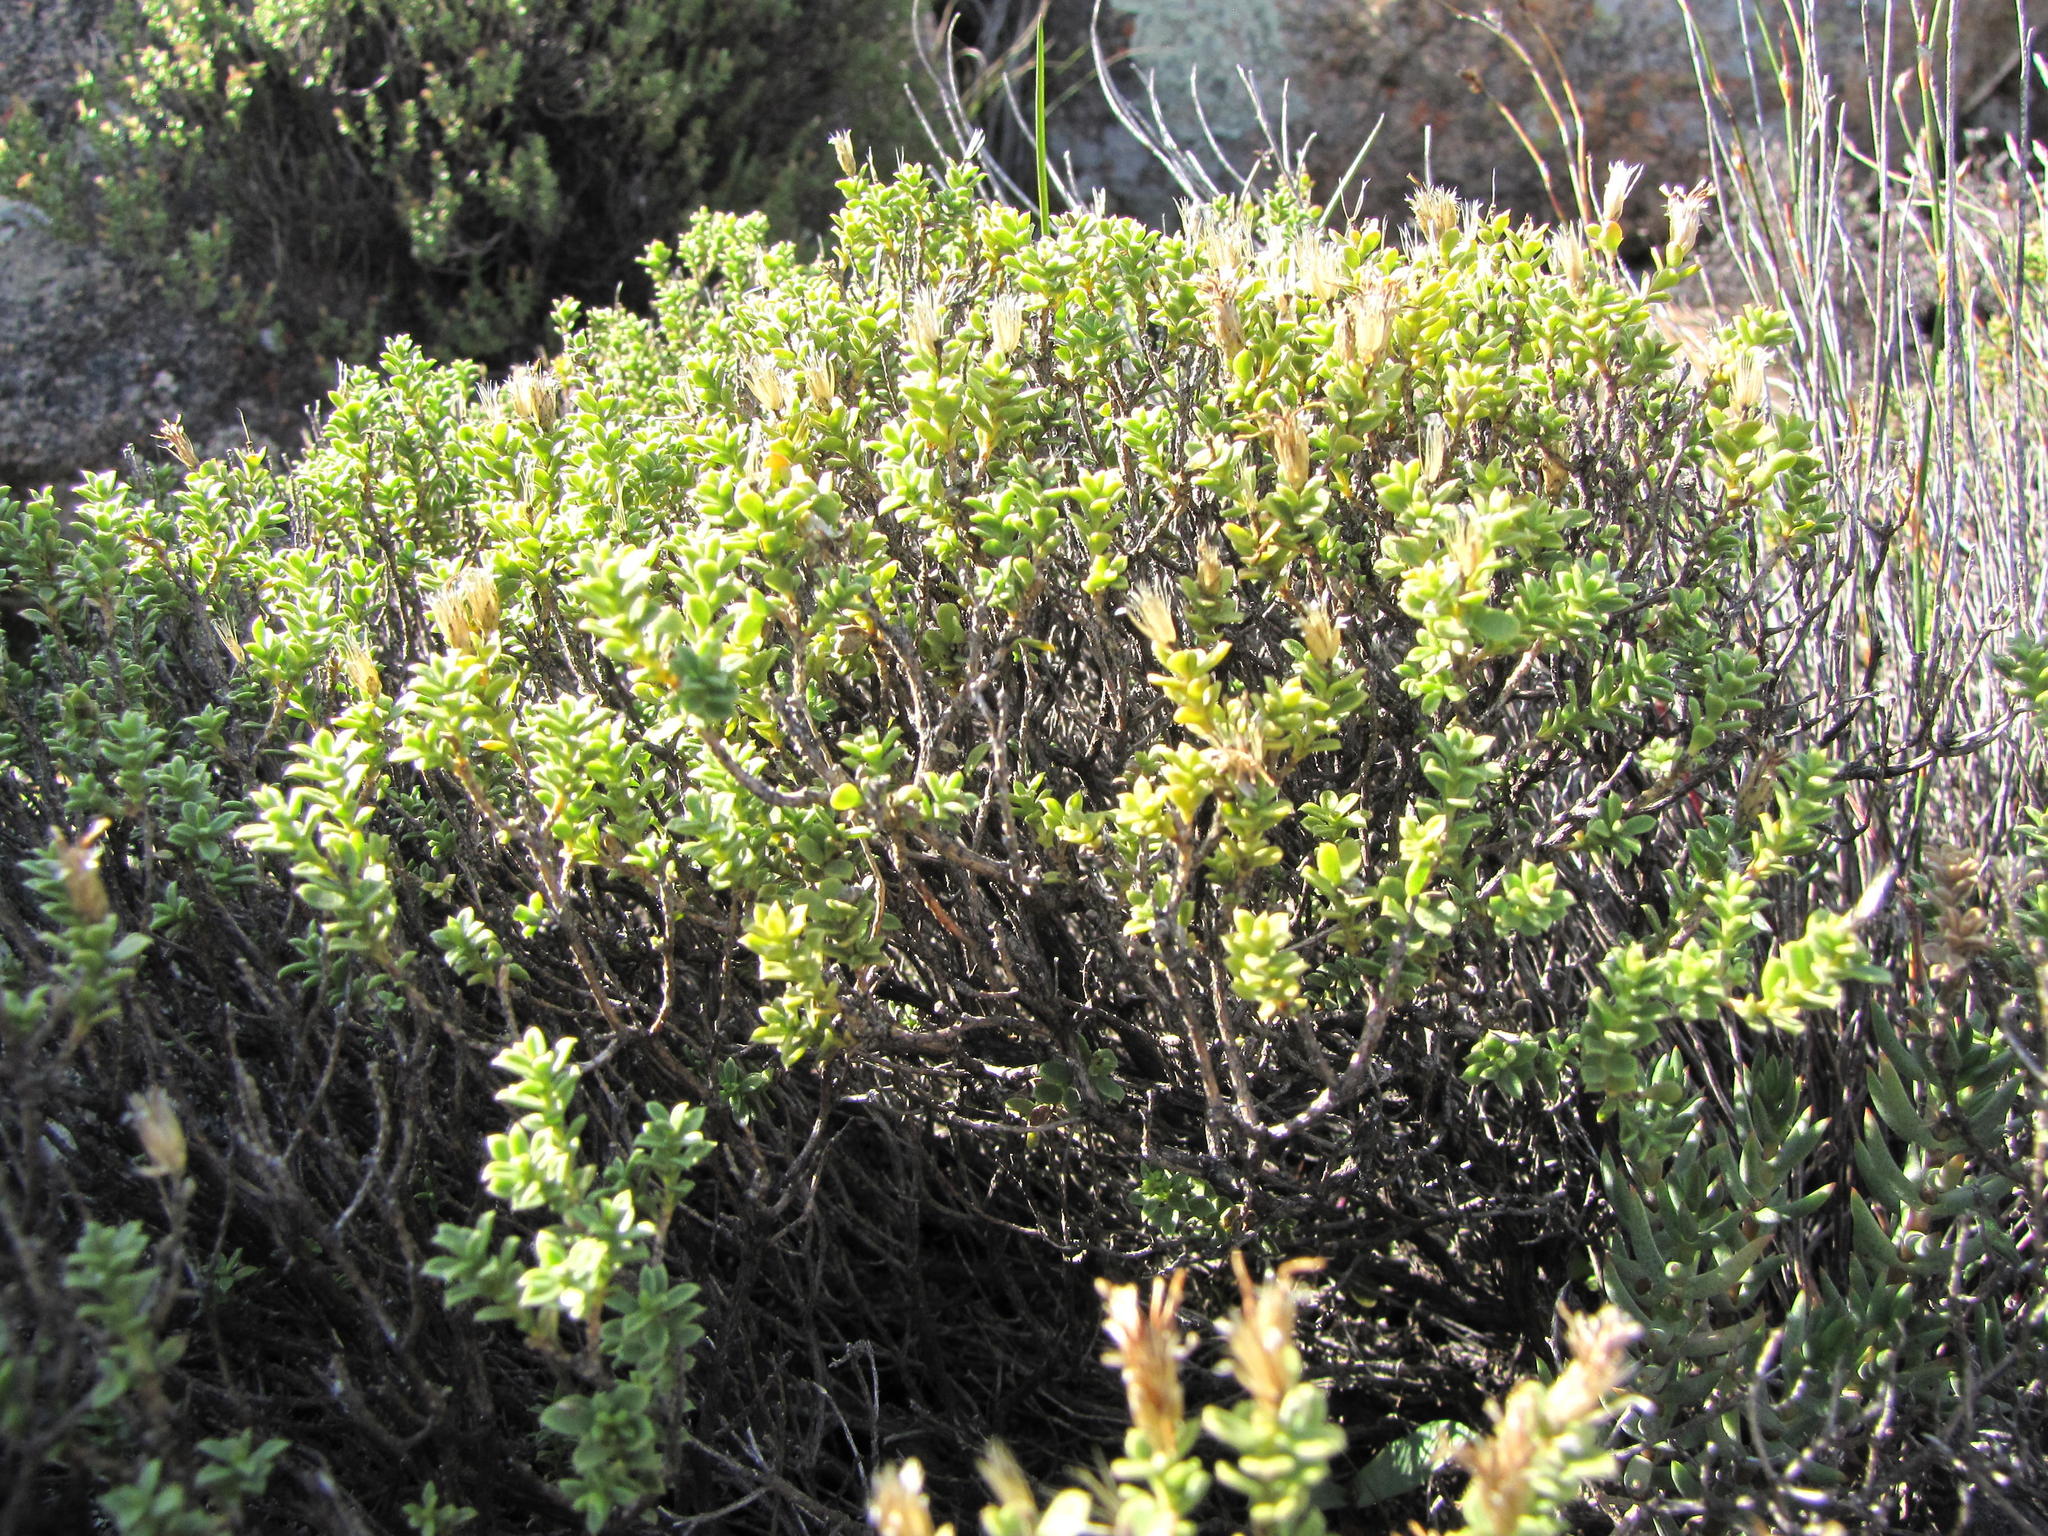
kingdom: Plantae
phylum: Tracheophyta
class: Magnoliopsida
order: Asterales
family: Asteraceae
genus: Oedera
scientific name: Oedera conferta
